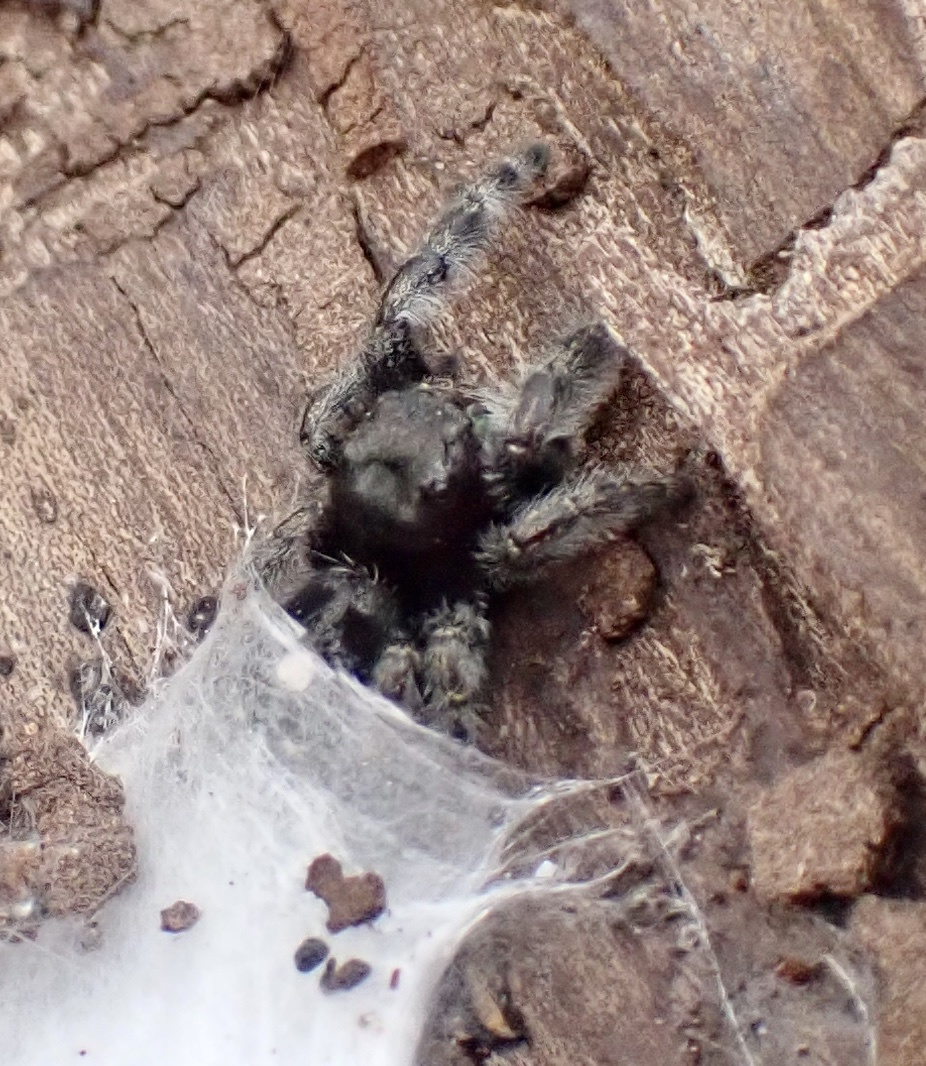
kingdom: Animalia
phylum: Arthropoda
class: Arachnida
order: Araneae
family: Salticidae
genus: Phidippus
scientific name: Phidippus audax
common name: Bold jumper
